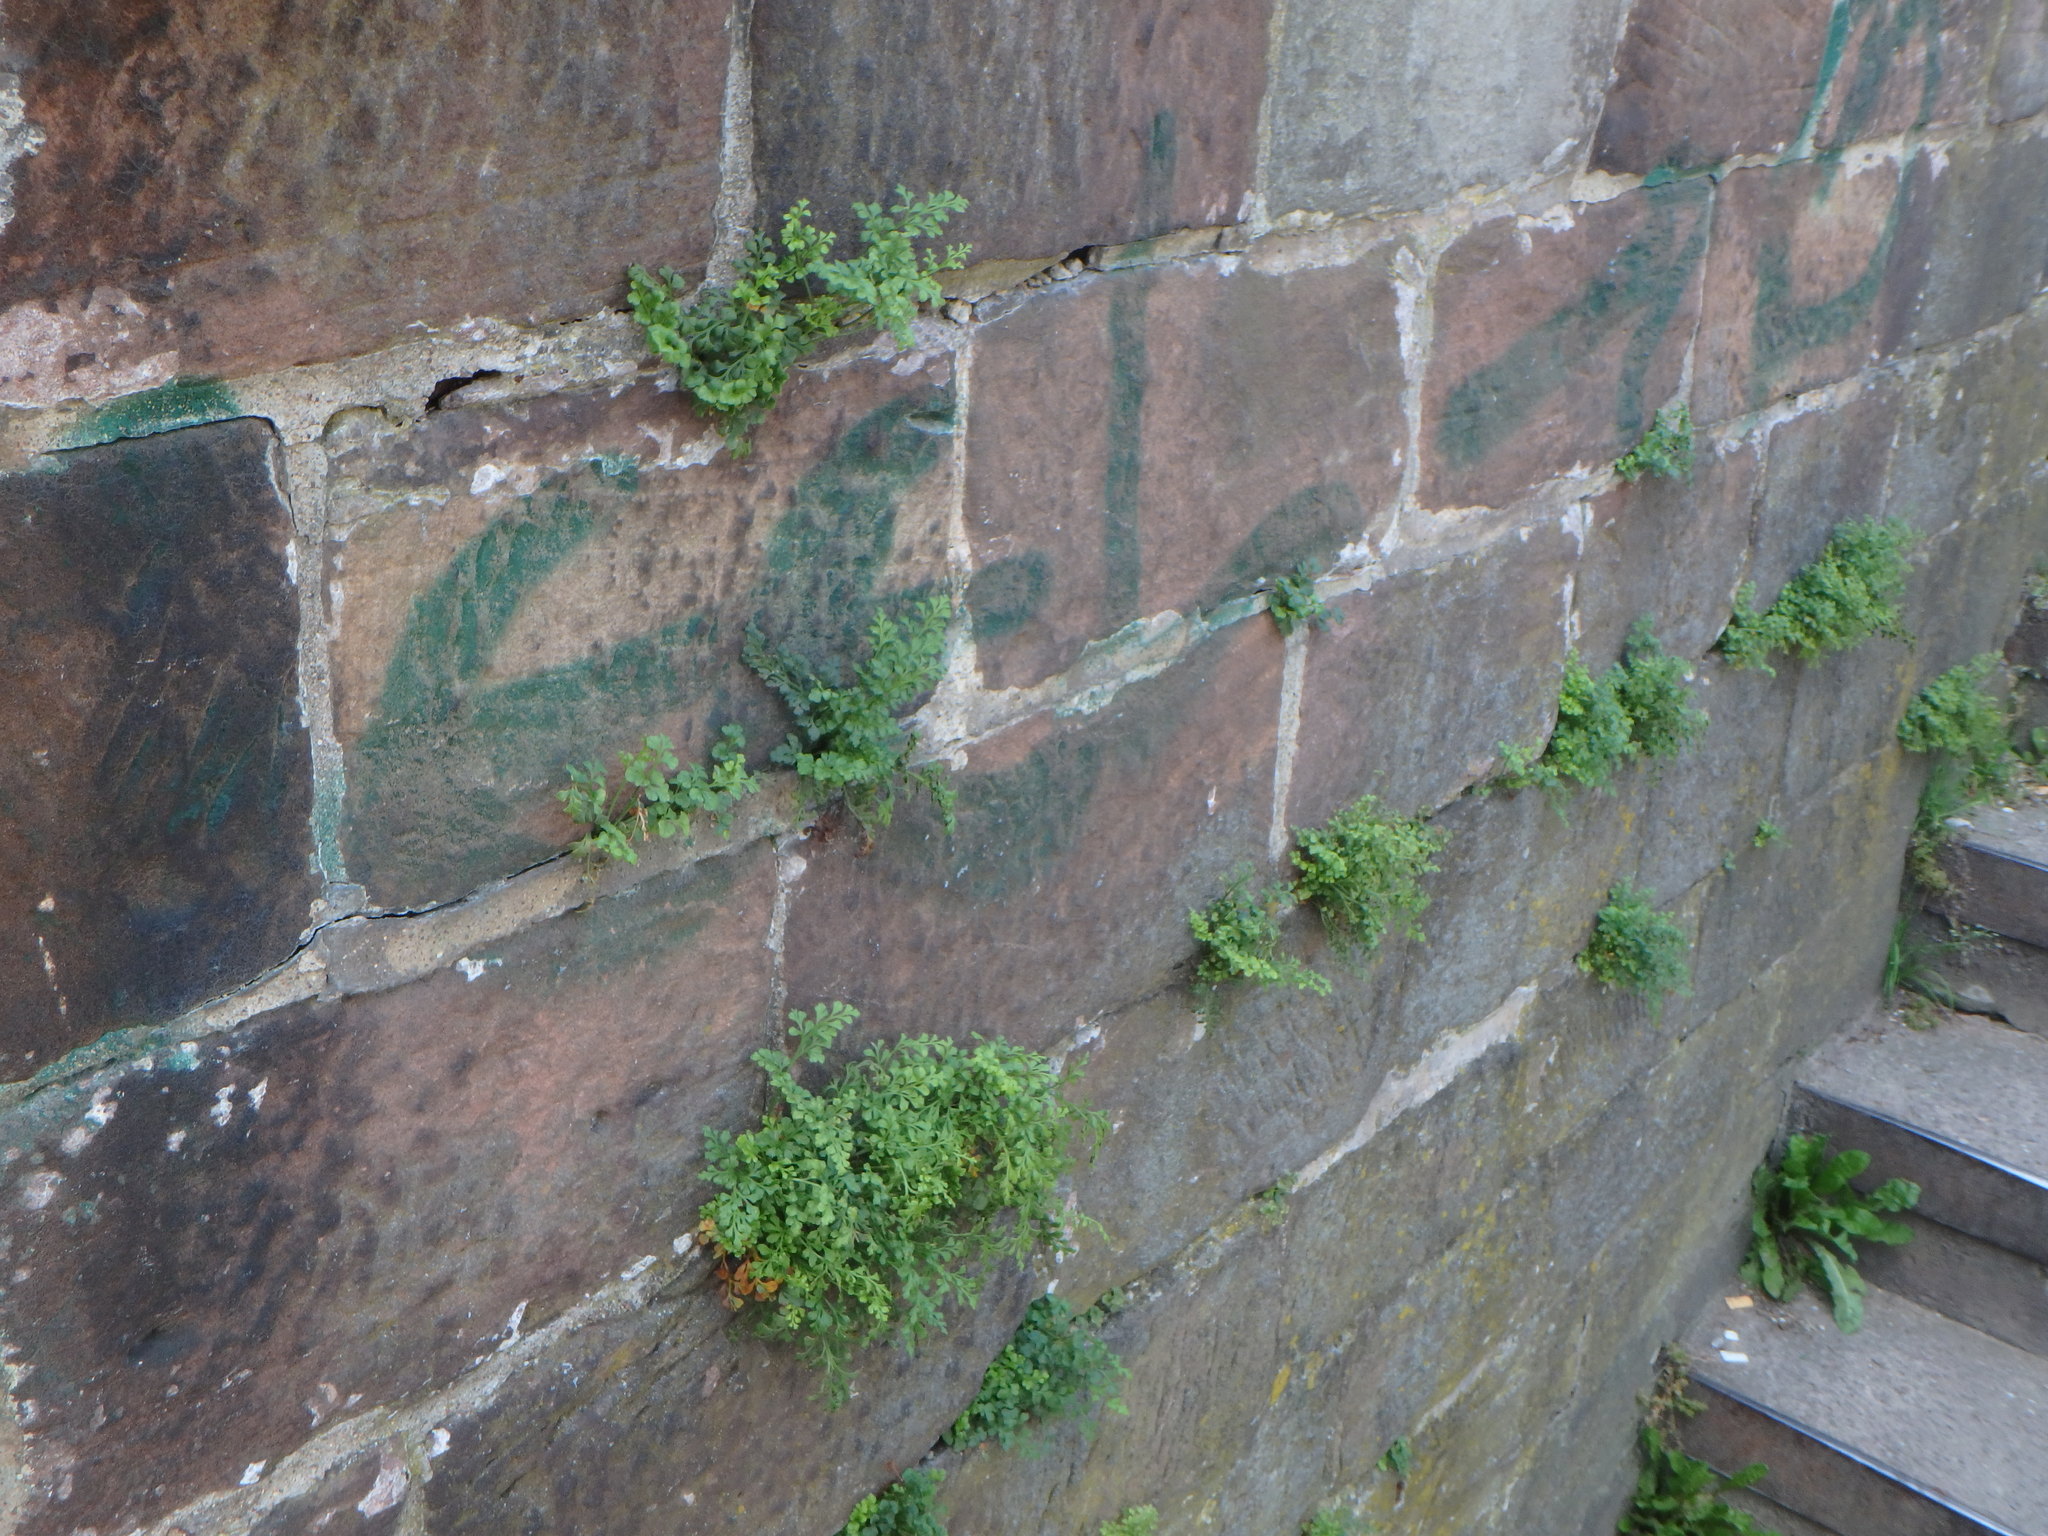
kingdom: Plantae
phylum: Tracheophyta
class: Polypodiopsida
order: Polypodiales
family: Aspleniaceae
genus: Asplenium
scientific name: Asplenium ruta-muraria
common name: Wall-rue
